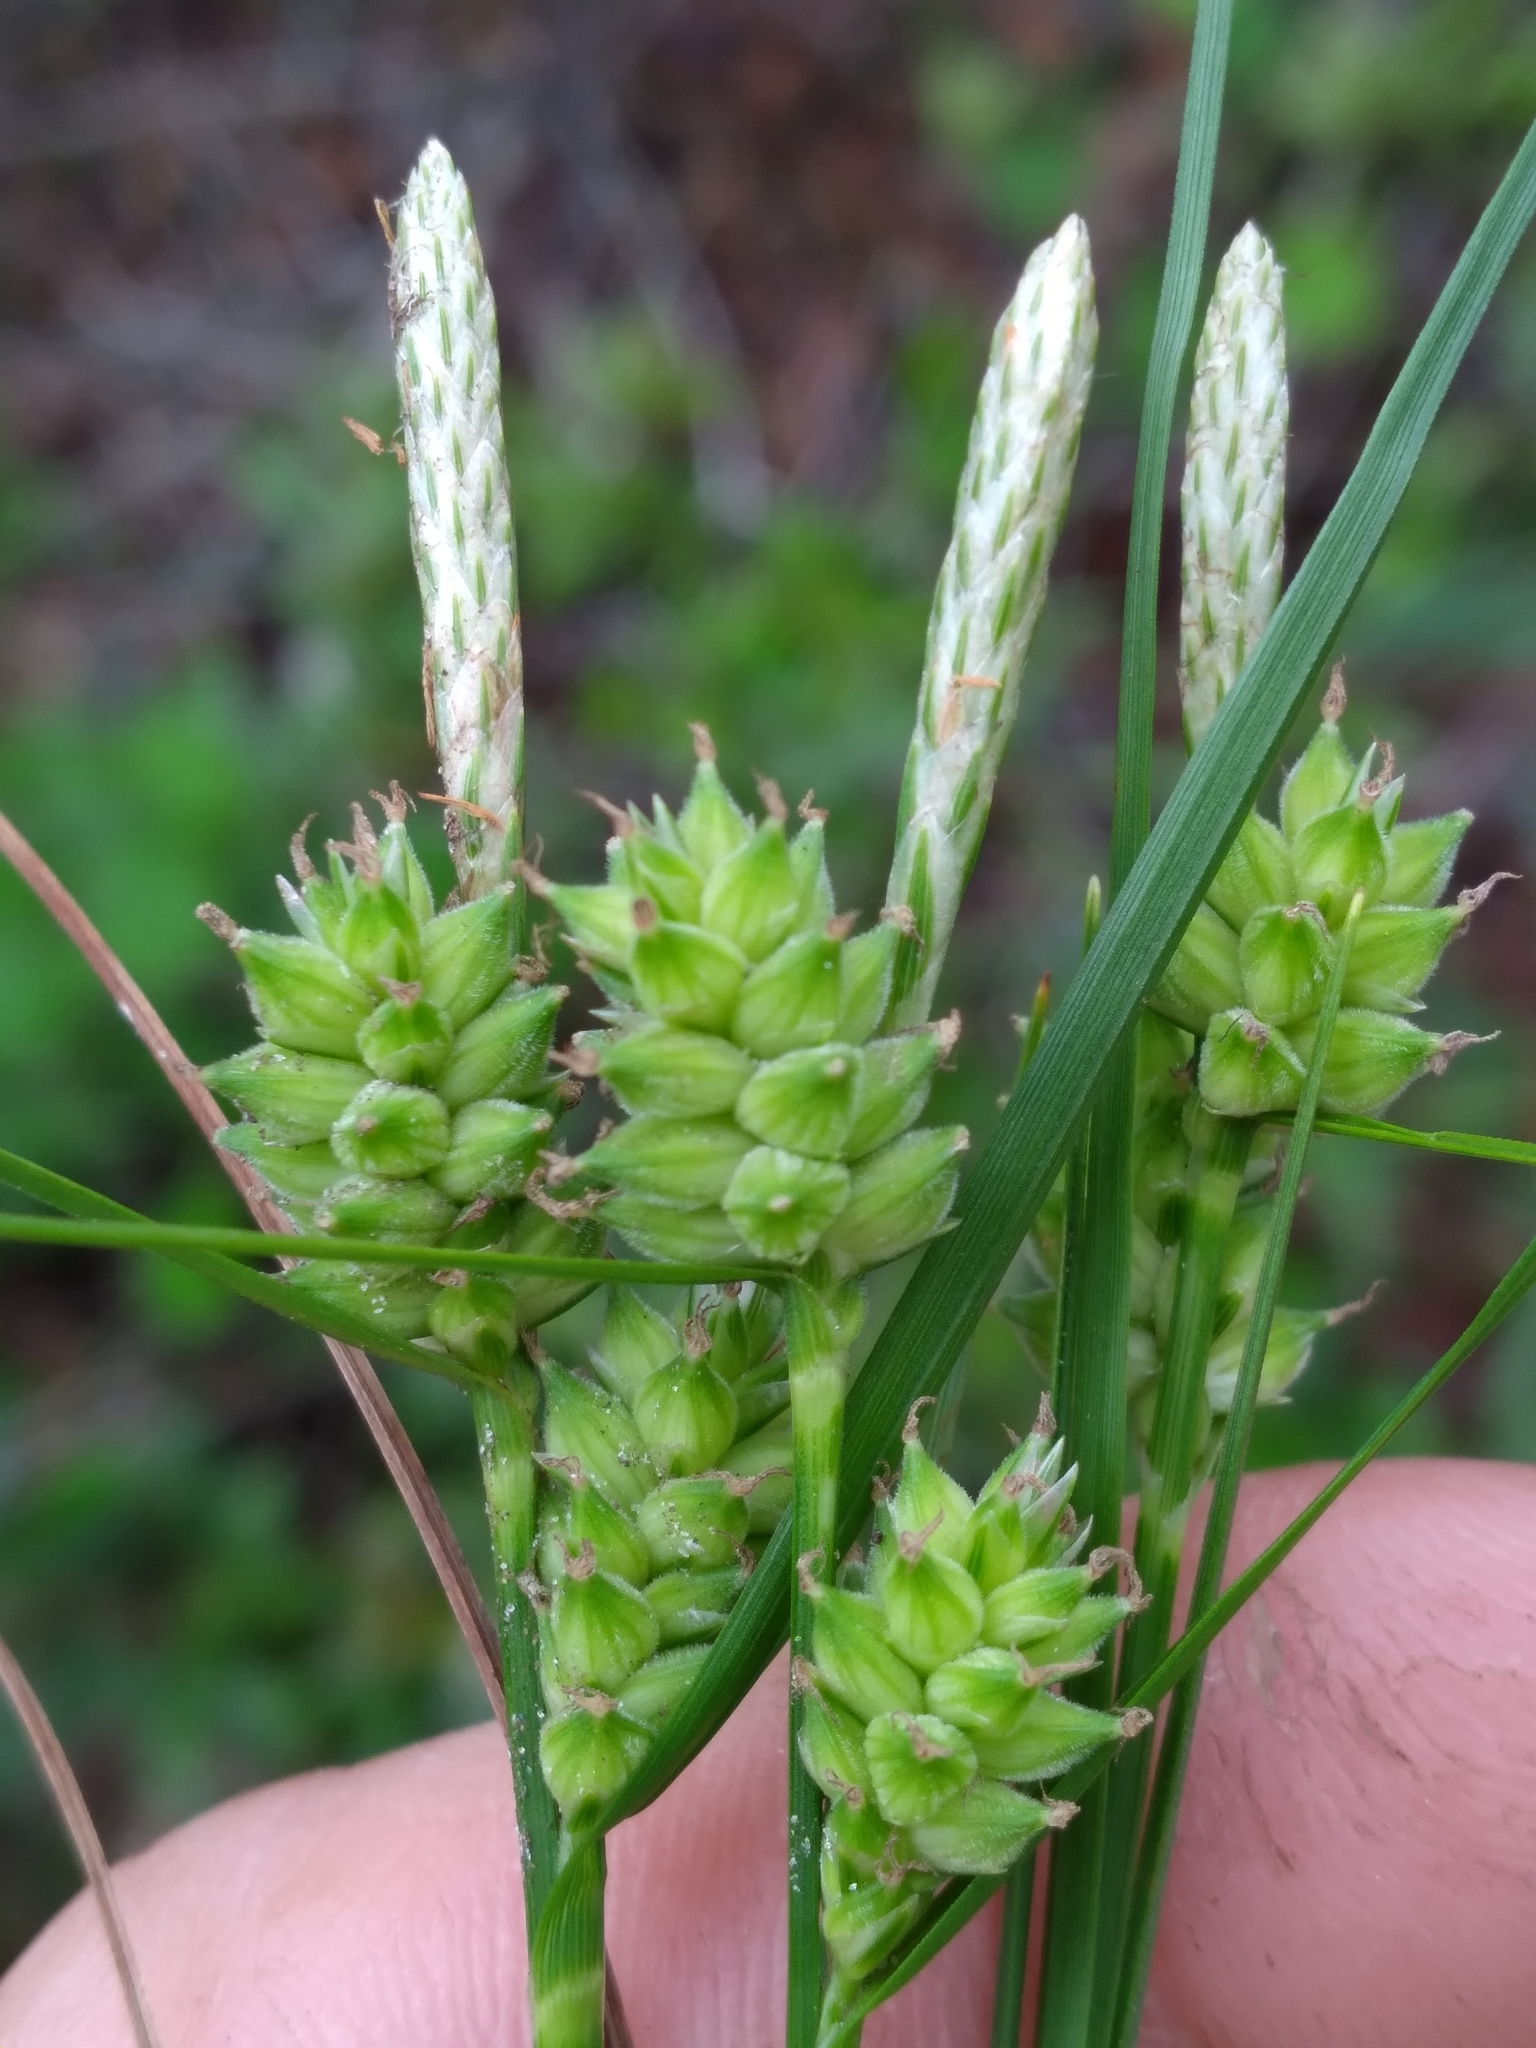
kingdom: Plantae
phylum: Tracheophyta
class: Liliopsida
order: Poales
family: Cyperaceae
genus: Carex
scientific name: Carex tenax
